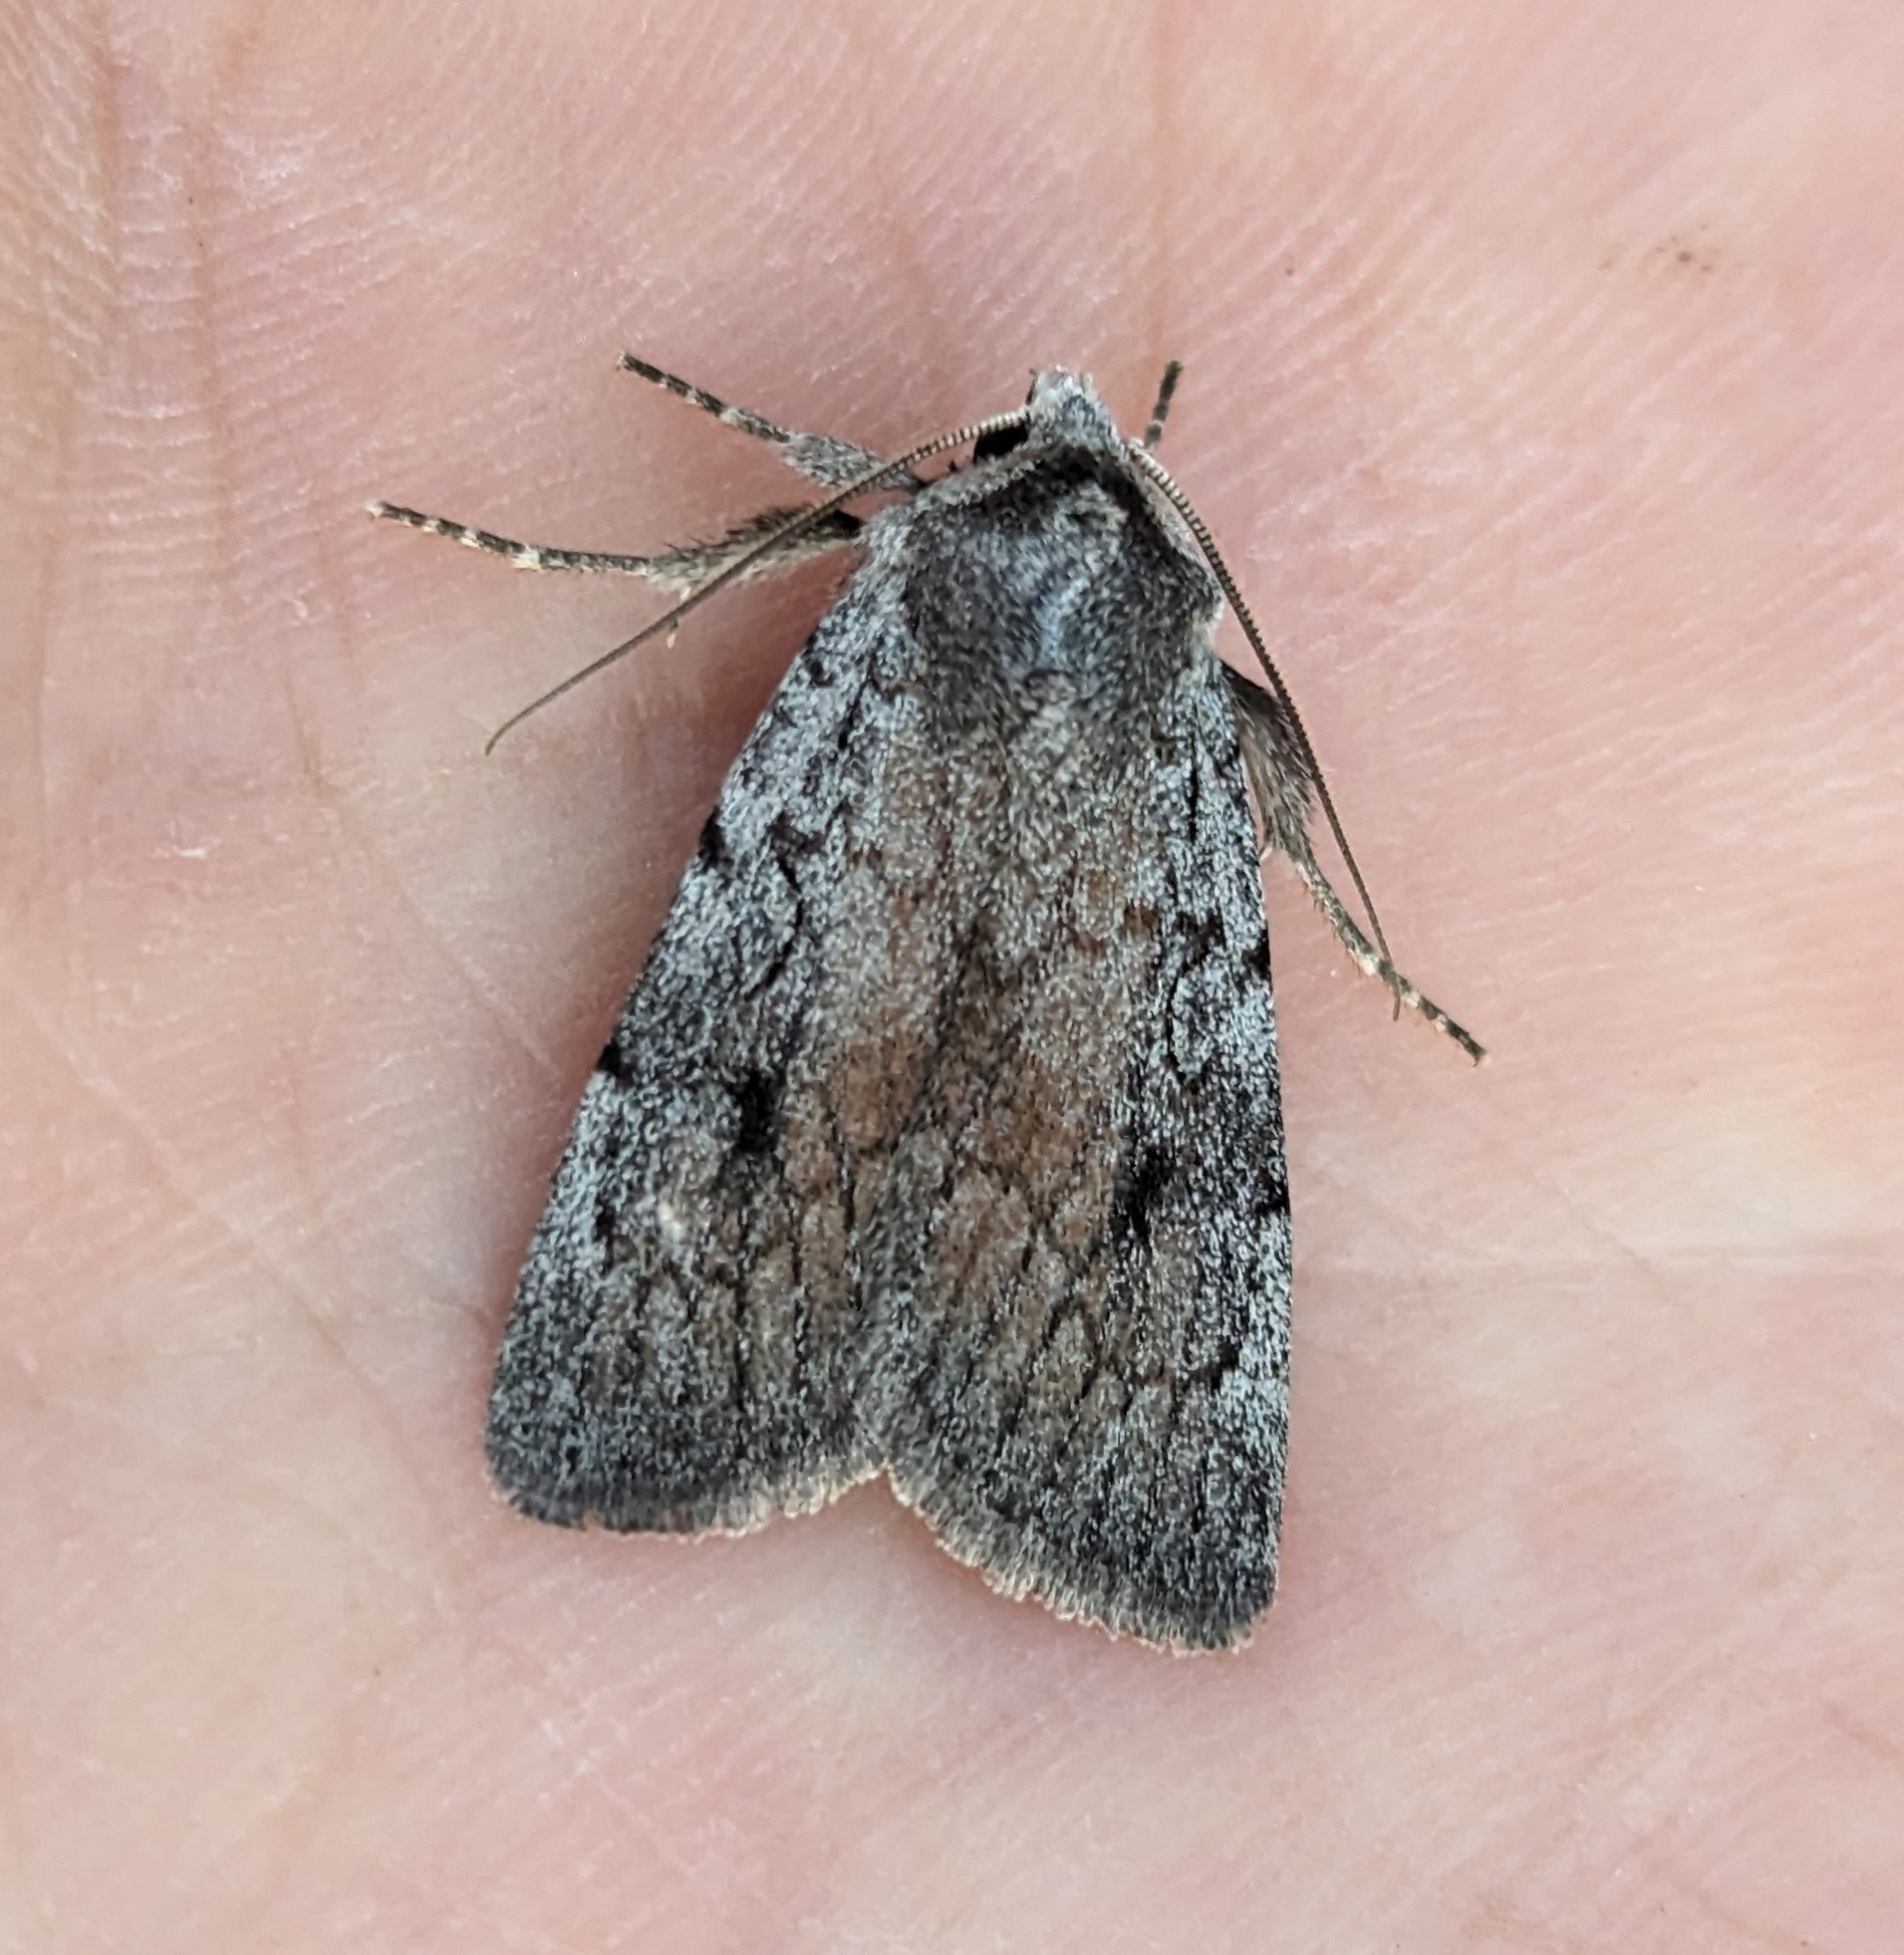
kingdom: Animalia
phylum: Arthropoda
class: Insecta
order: Lepidoptera
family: Noctuidae
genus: Setagrotis
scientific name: Setagrotis pallidicollis
